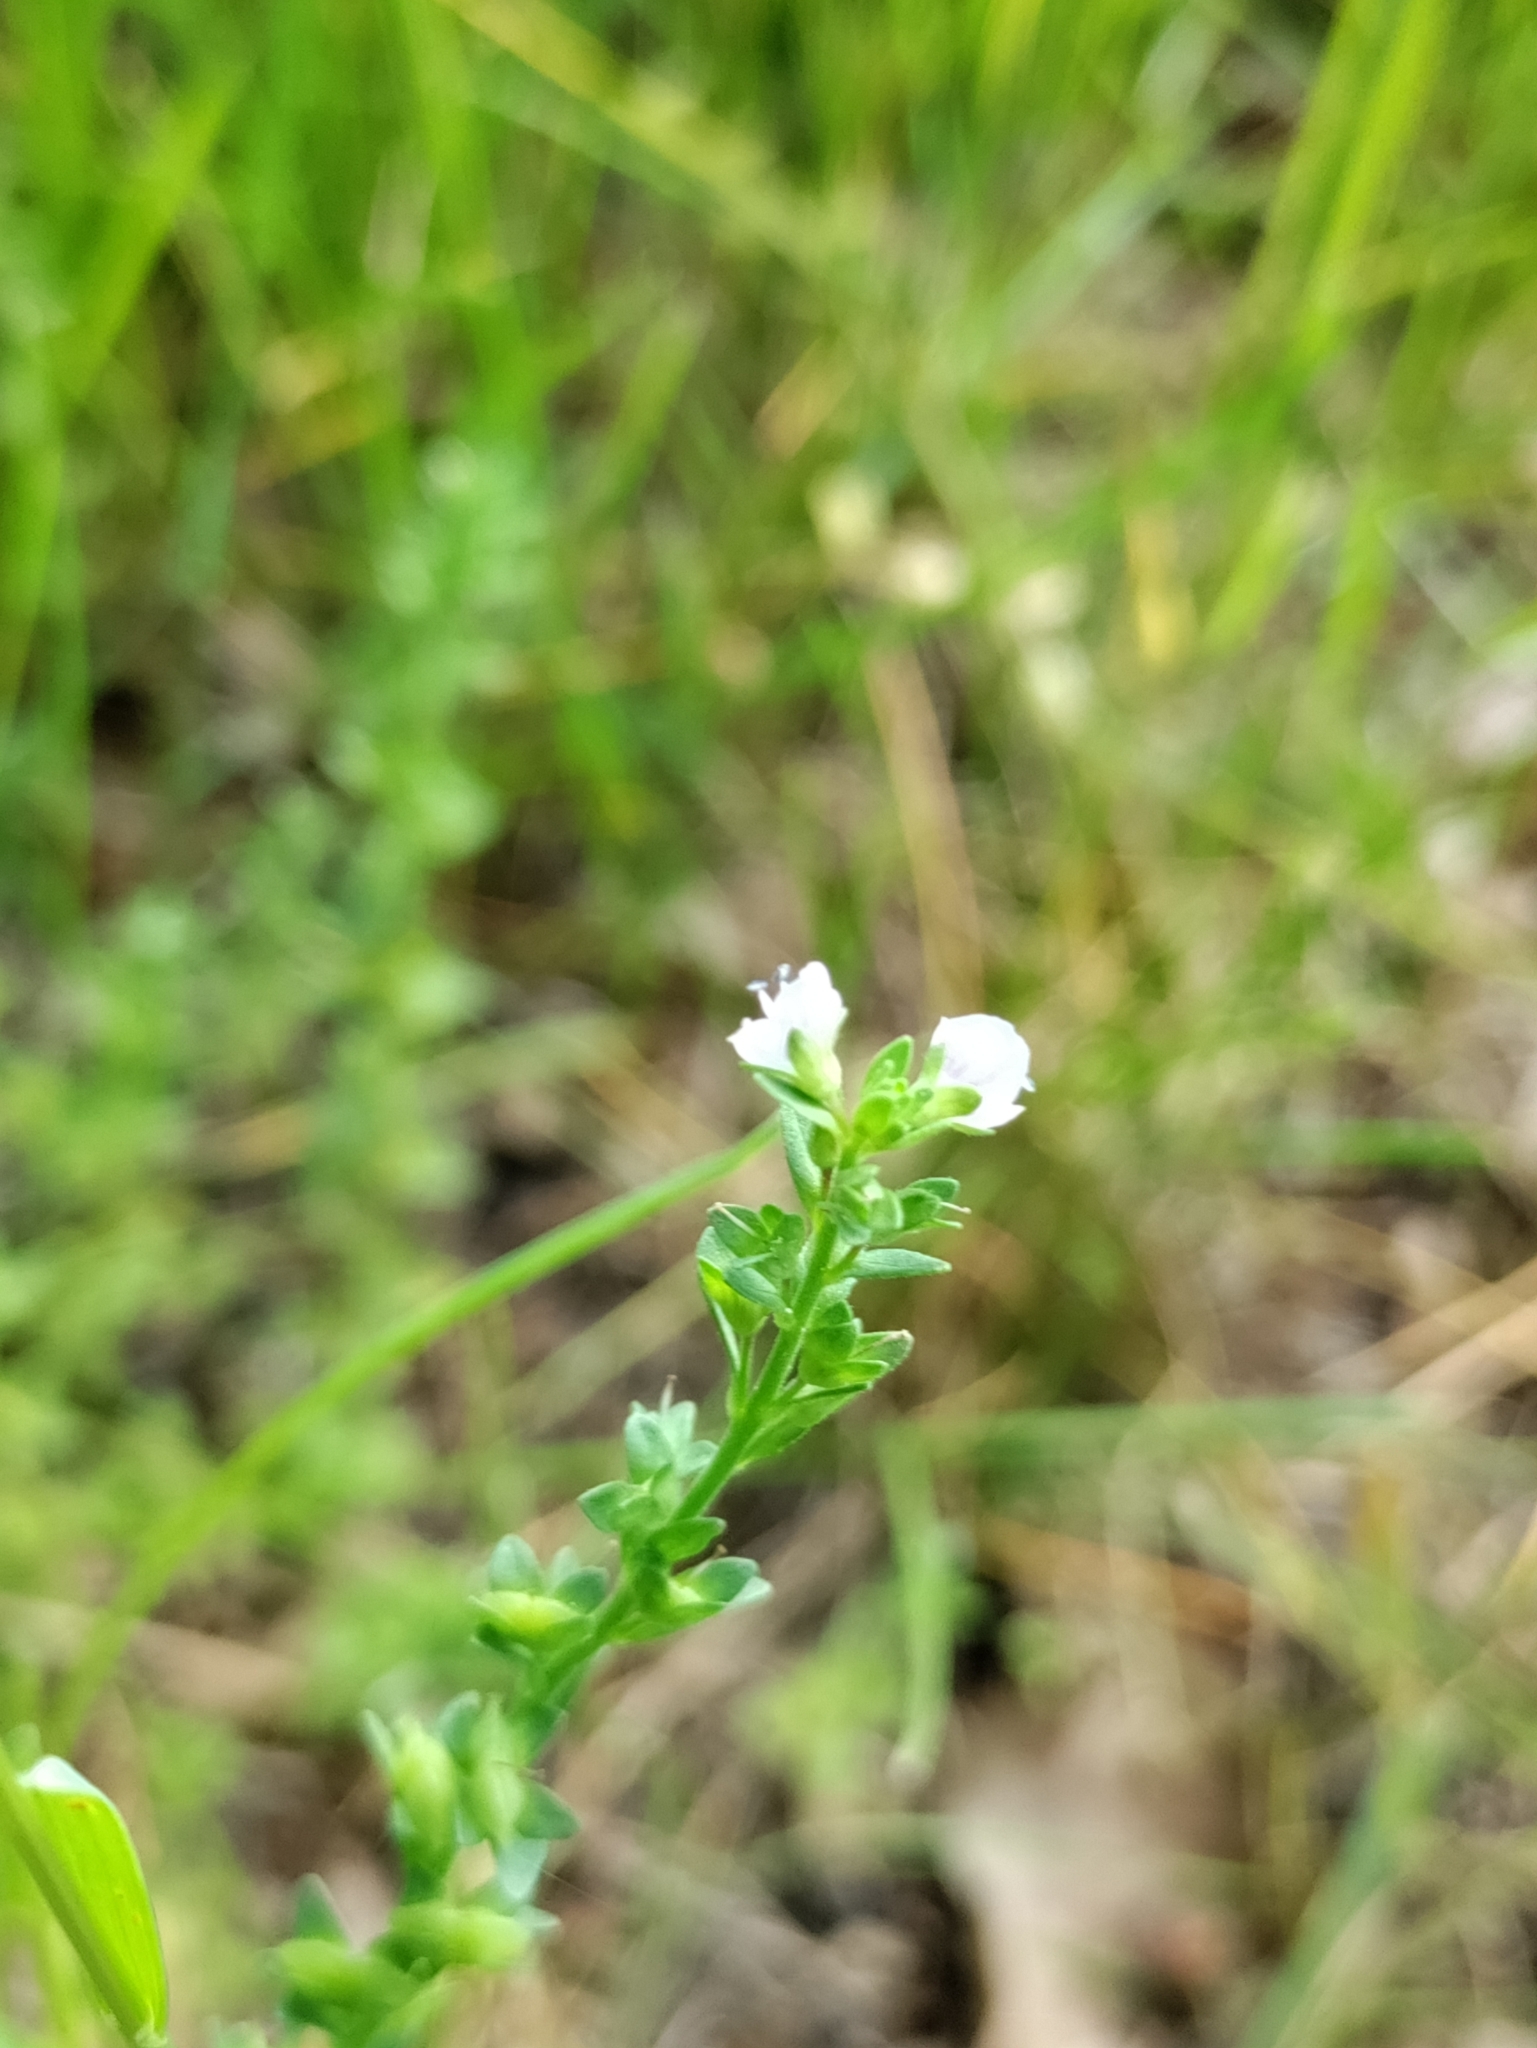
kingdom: Plantae
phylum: Tracheophyta
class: Magnoliopsida
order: Lamiales
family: Plantaginaceae
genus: Veronica
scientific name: Veronica serpyllifolia
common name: Thyme-leaved speedwell
